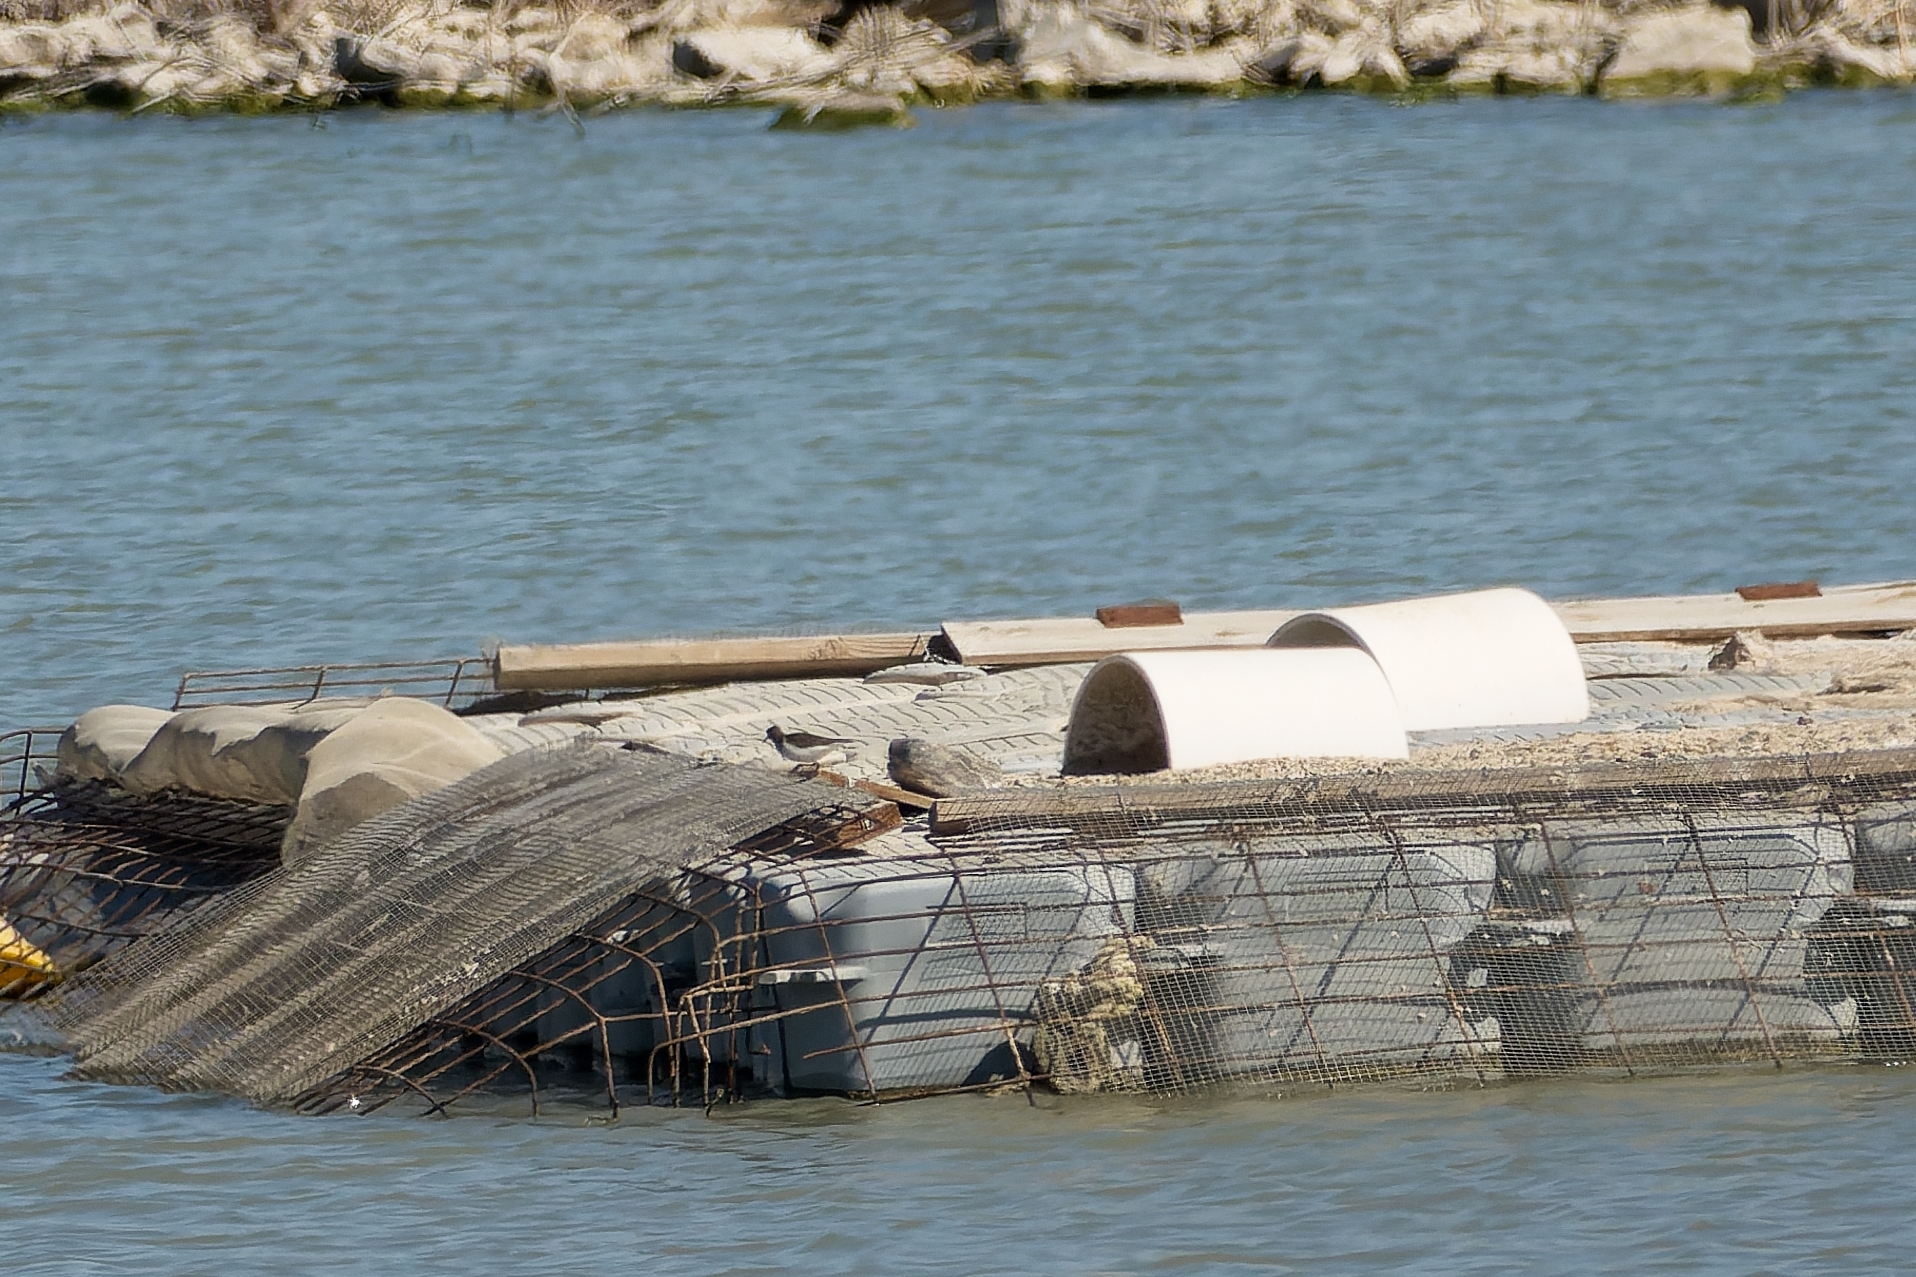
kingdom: Animalia
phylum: Chordata
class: Aves
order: Charadriiformes
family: Scolopacidae
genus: Actitis
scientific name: Actitis macularius
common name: Spotted sandpiper
